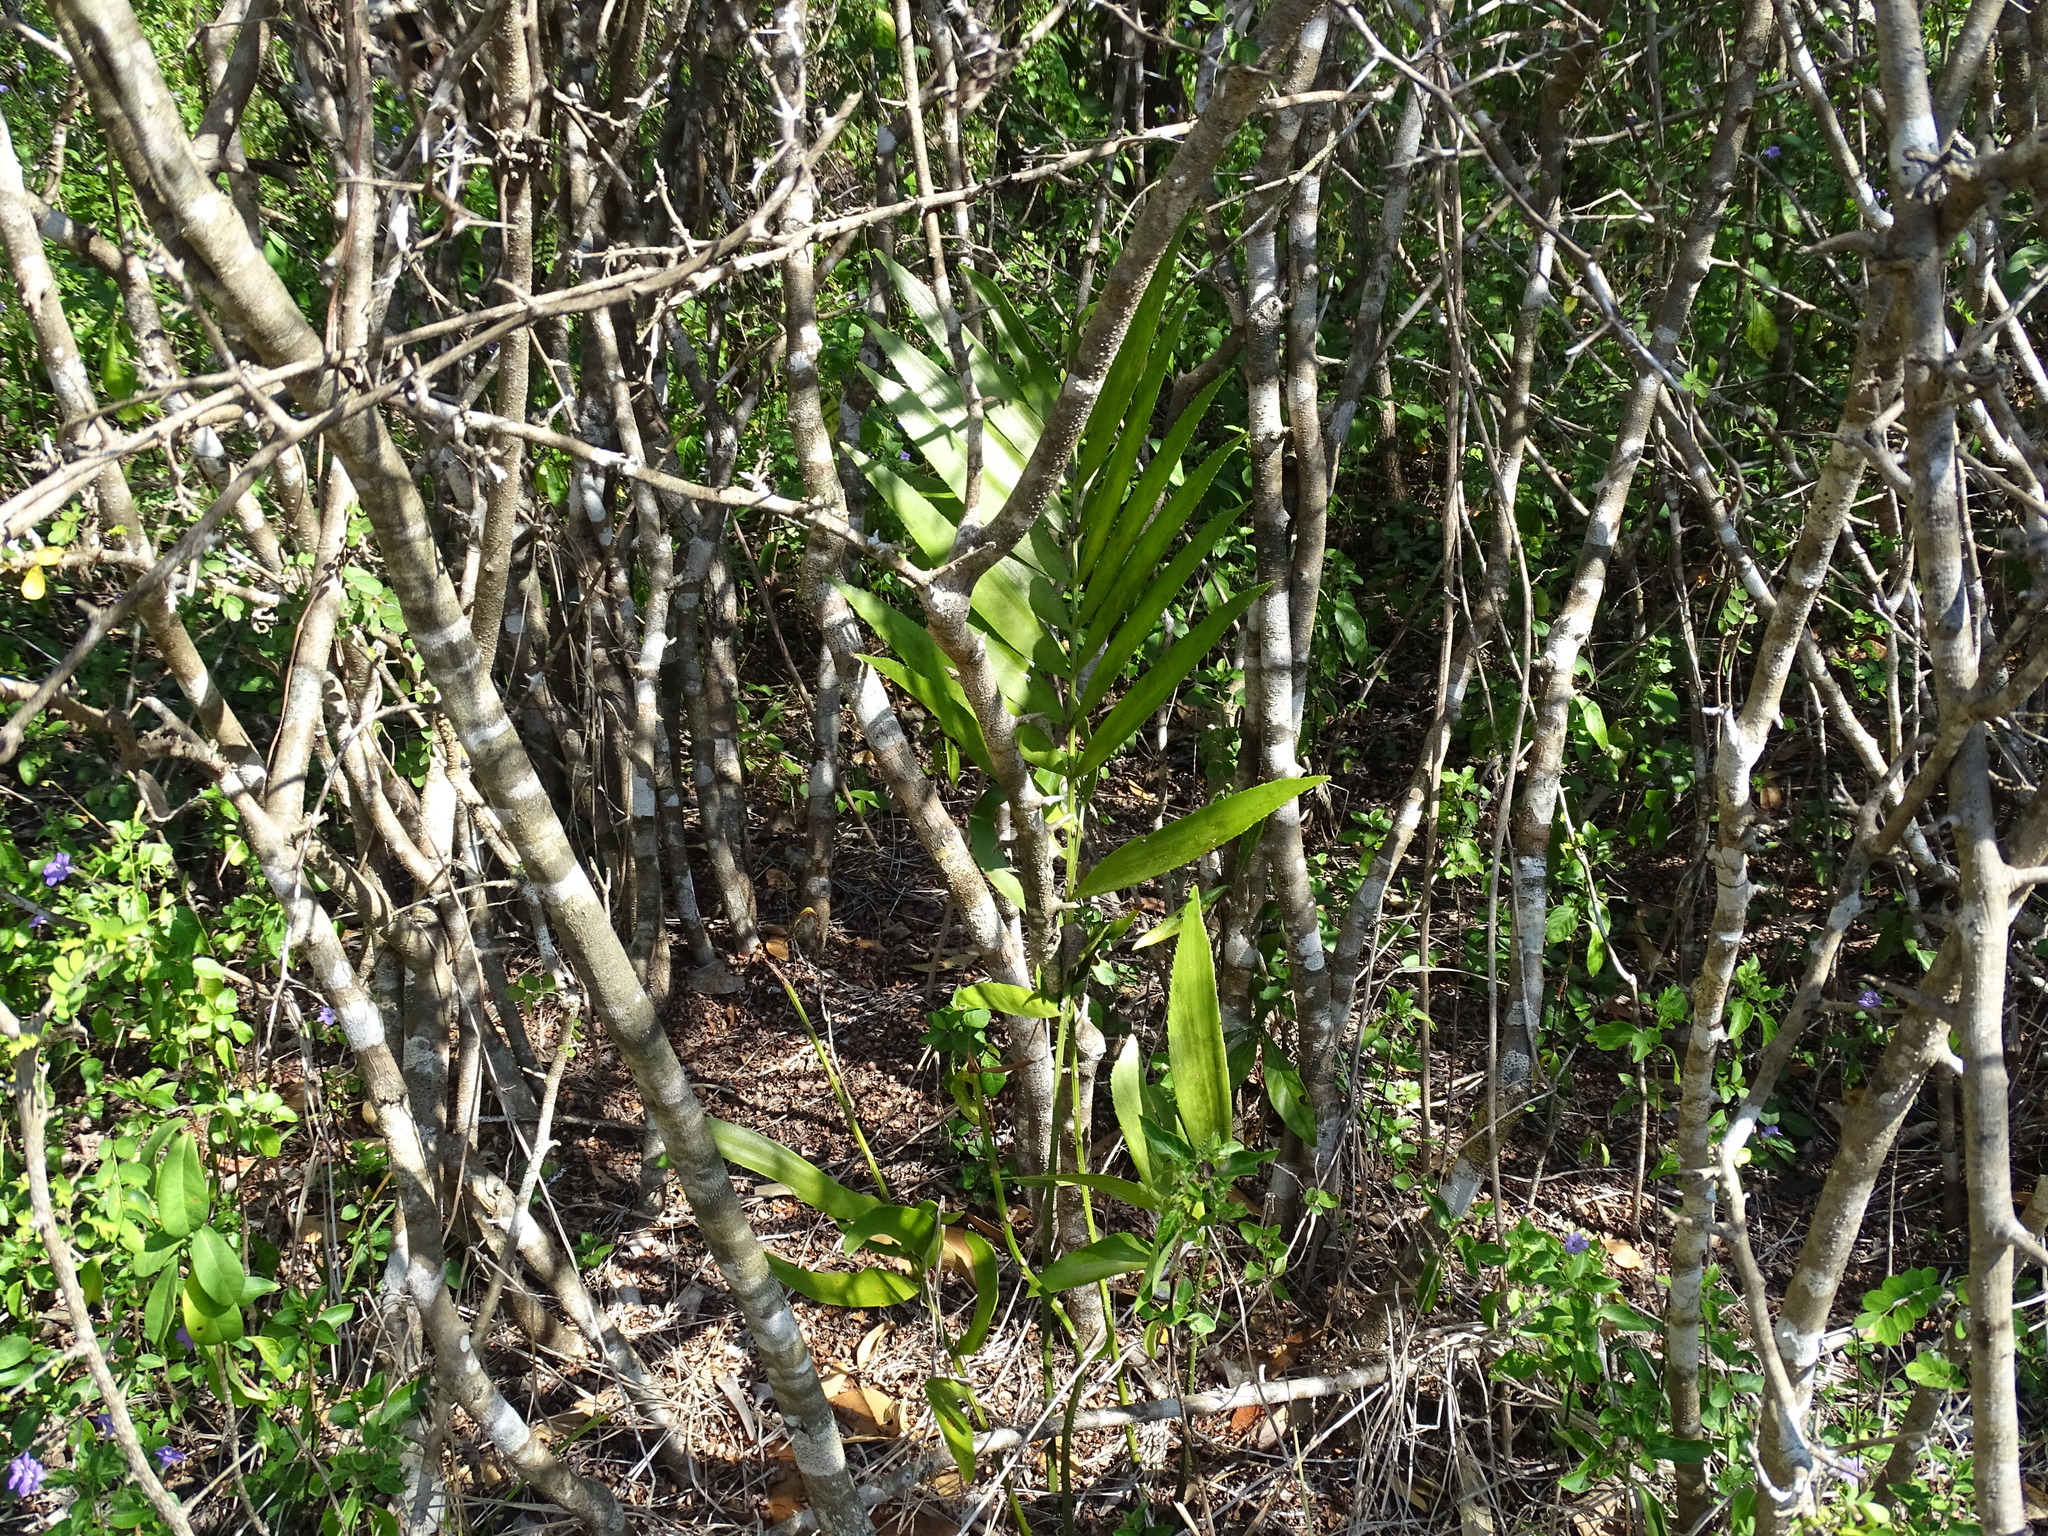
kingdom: Plantae
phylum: Tracheophyta
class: Cycadopsida
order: Cycadales
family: Zamiaceae
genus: Zamia
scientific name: Zamia prasina
